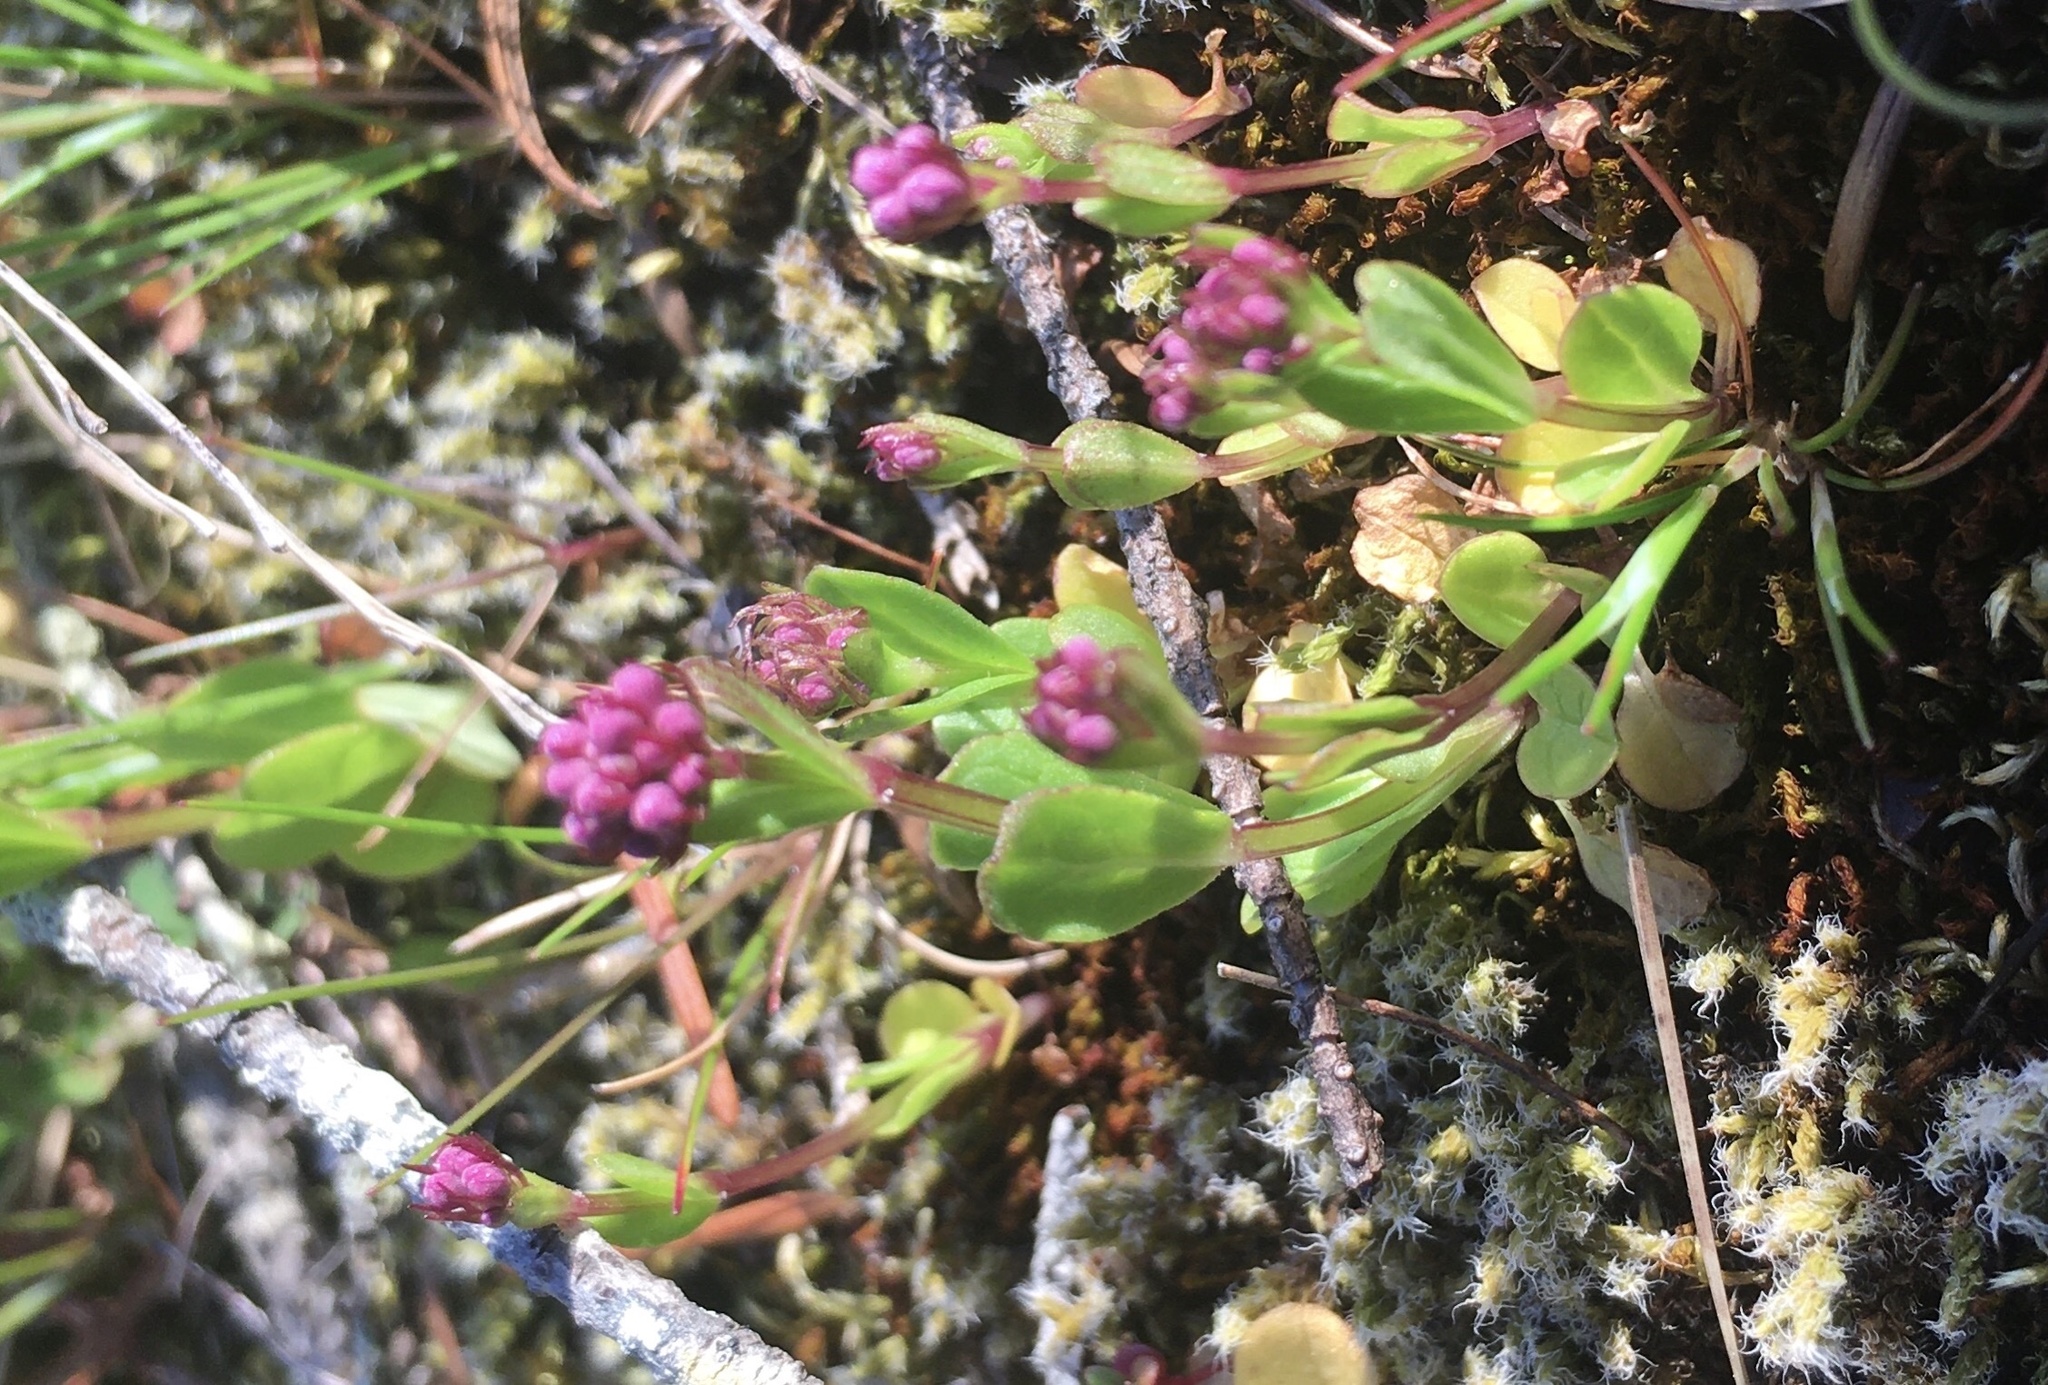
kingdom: Plantae
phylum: Tracheophyta
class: Magnoliopsida
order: Dipsacales
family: Caprifoliaceae
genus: Plectritis
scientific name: Plectritis congesta
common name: Pink plectritis
